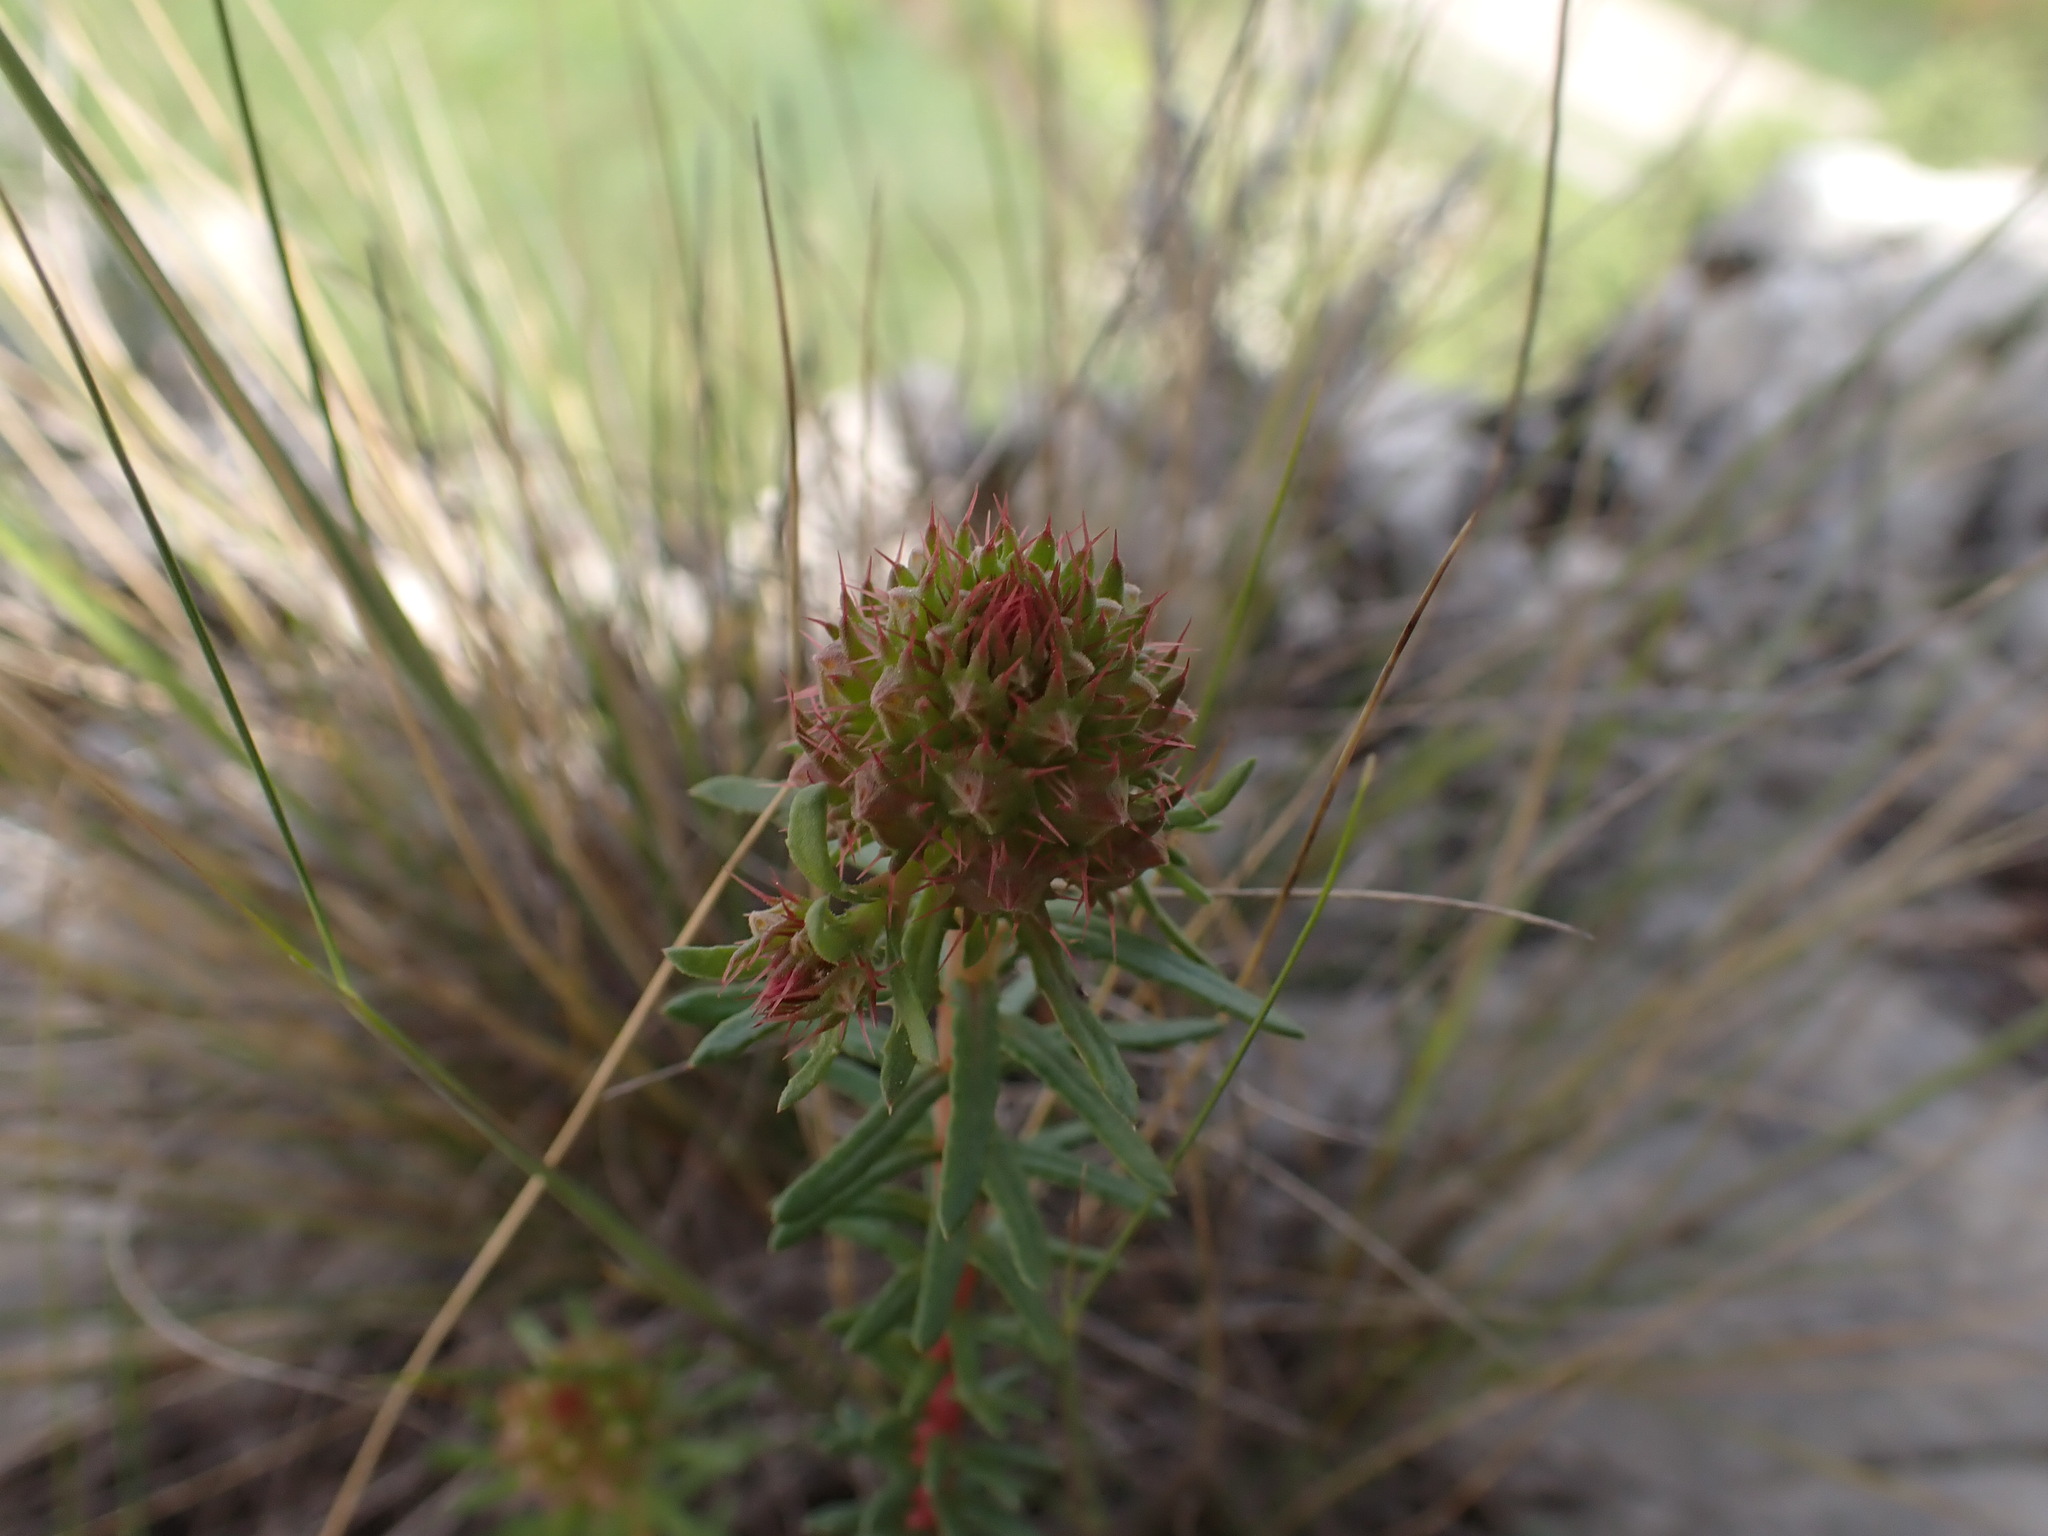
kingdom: Plantae
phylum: Tracheophyta
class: Magnoliopsida
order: Ericales
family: Primulaceae
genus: Coris
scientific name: Coris monspeliensis
